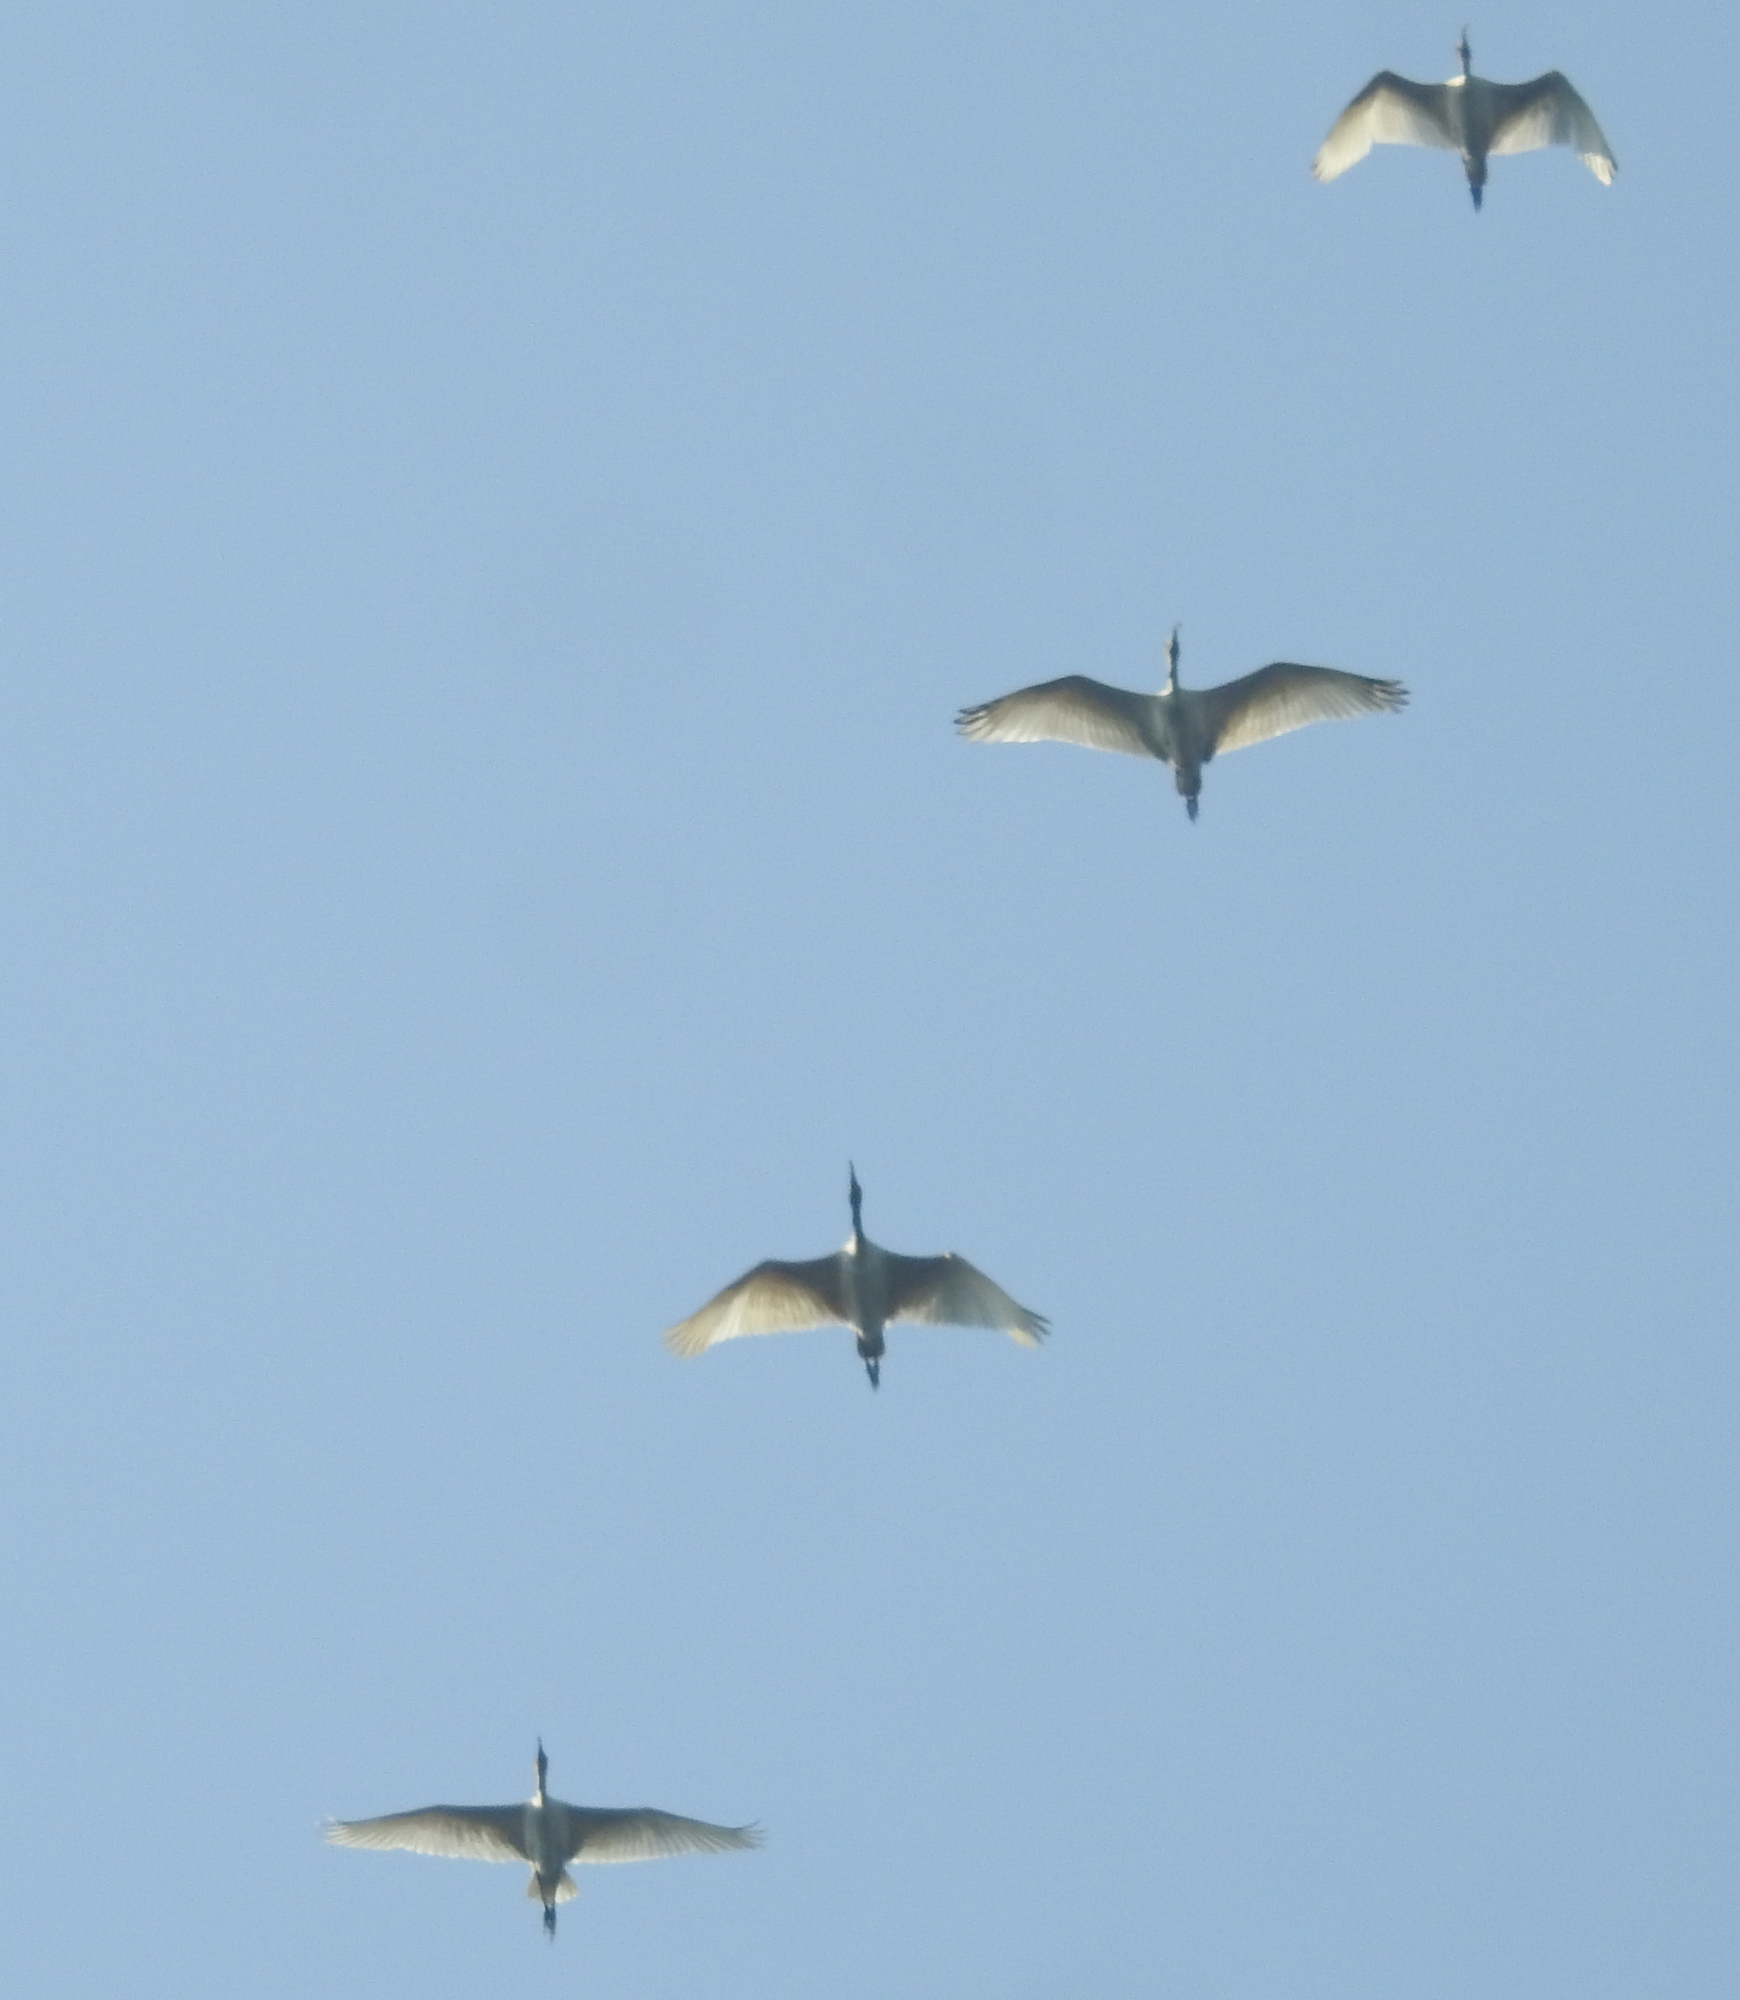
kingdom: Animalia
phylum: Chordata
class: Aves
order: Pelecaniformes
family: Threskiornithidae
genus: Threskiornis
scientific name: Threskiornis melanocephalus
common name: Black-headed ibis
